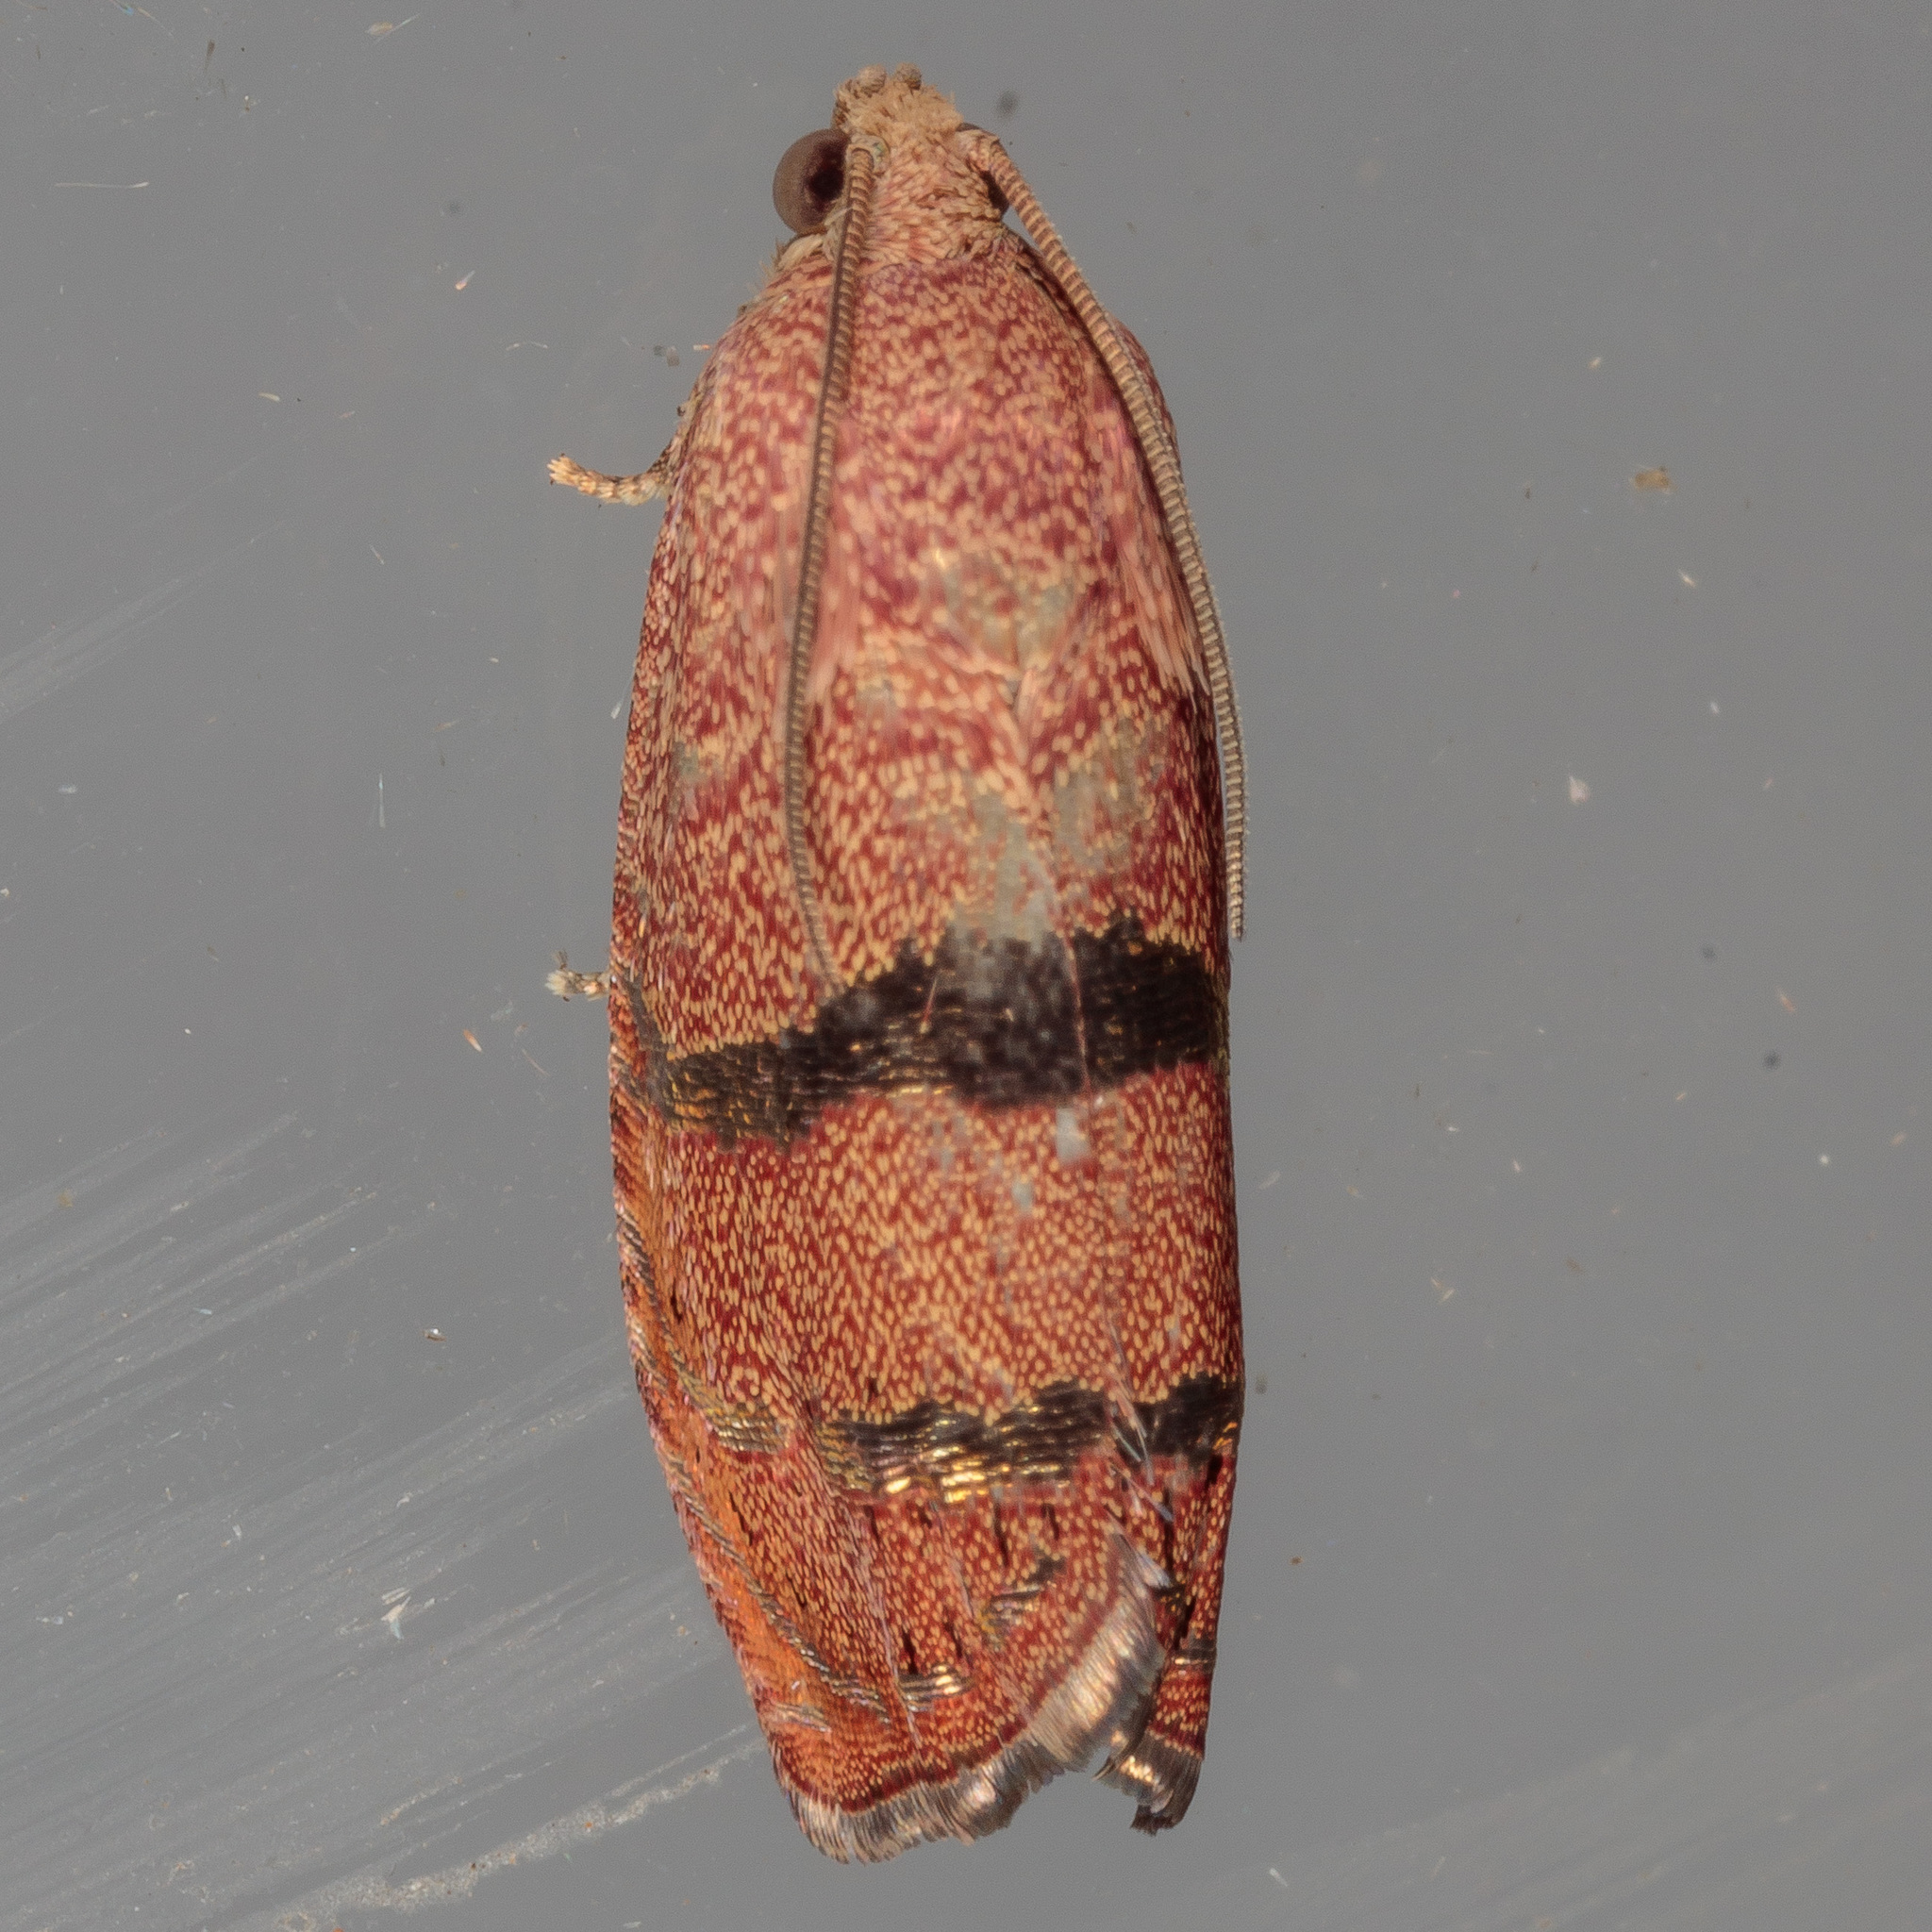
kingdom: Animalia
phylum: Arthropoda
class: Insecta
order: Lepidoptera
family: Tortricidae
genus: Cydia
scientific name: Cydia latiferreana
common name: Filbertworm moth
